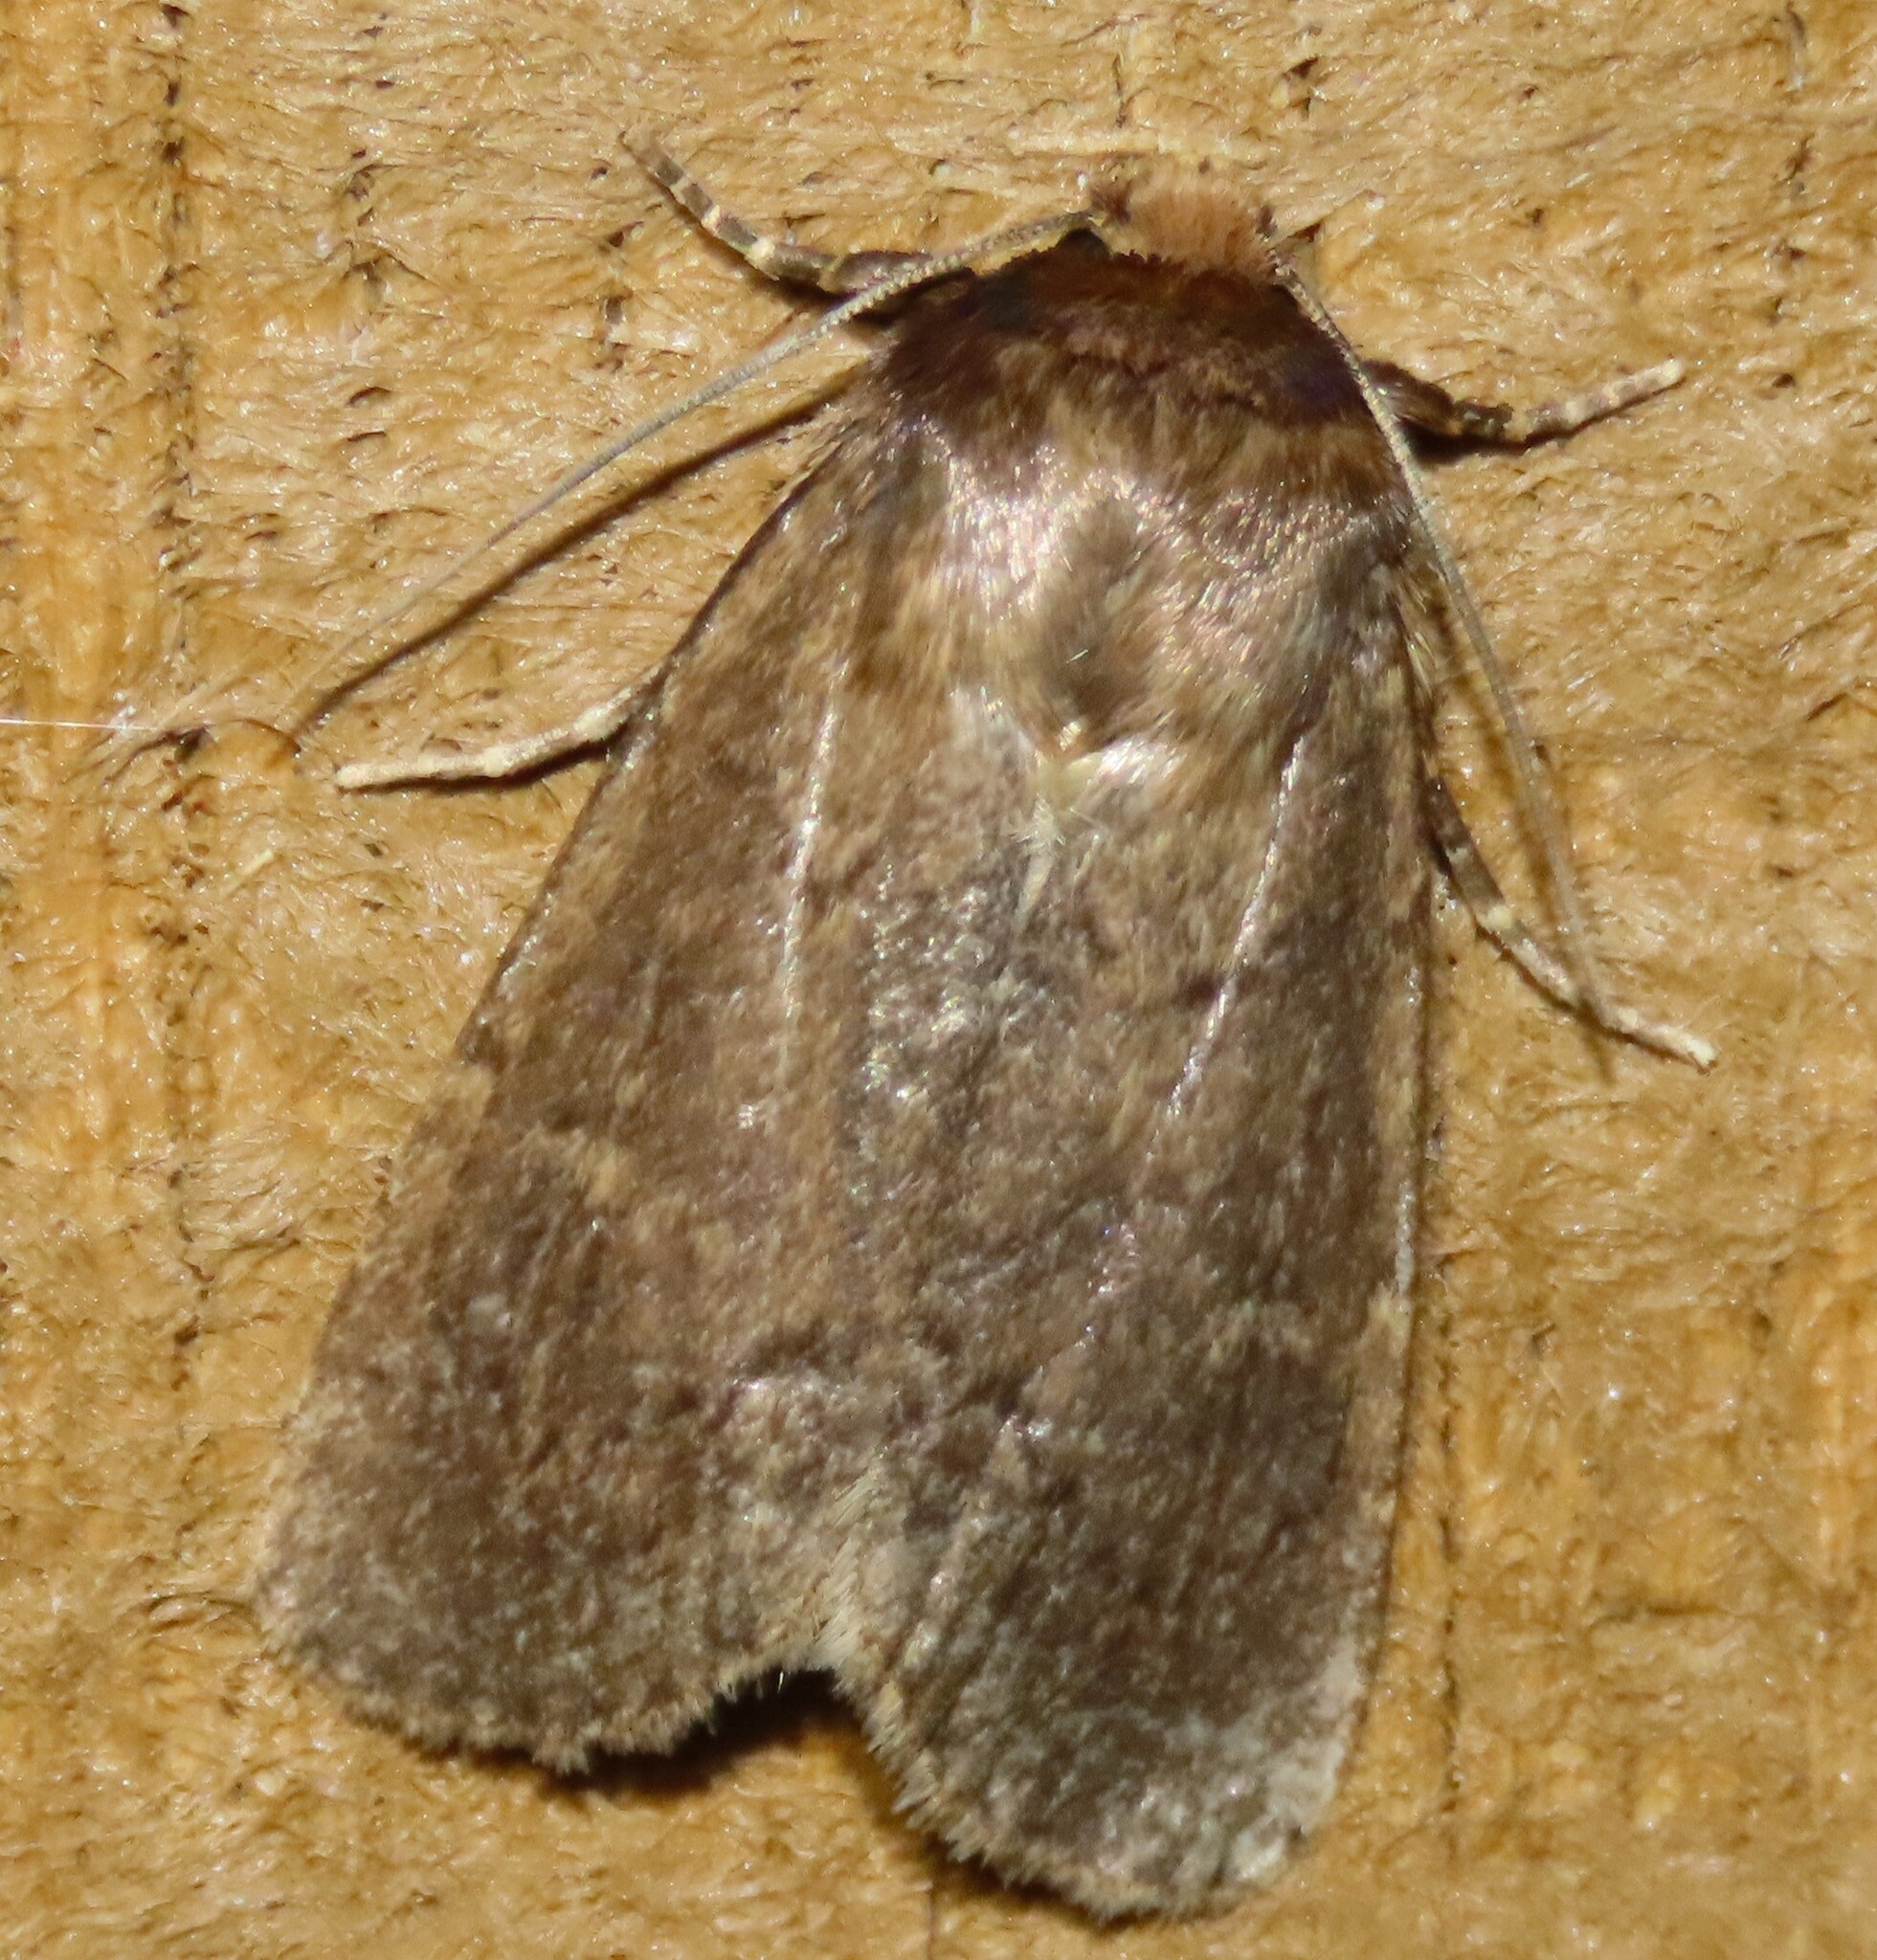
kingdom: Animalia
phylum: Arthropoda
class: Insecta
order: Lepidoptera
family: Noctuidae
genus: Bityla
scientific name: Bityla defigurata
